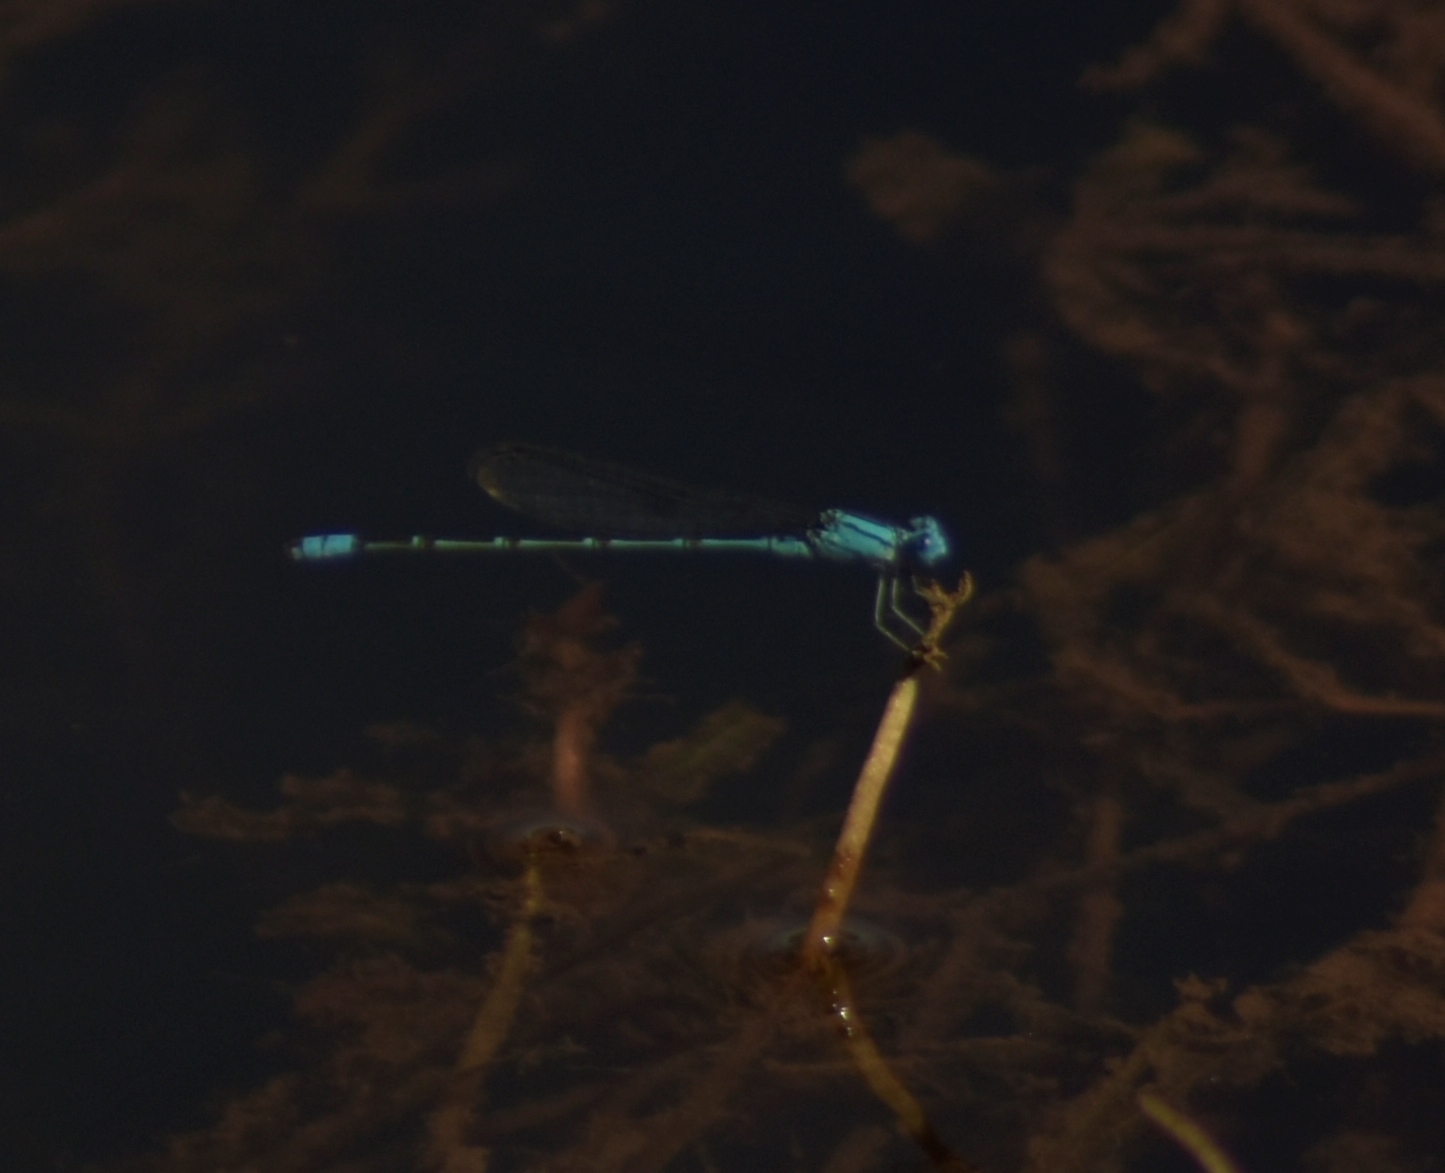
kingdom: Animalia
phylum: Arthropoda
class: Insecta
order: Odonata
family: Coenagrionidae
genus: Pseudagrion
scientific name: Pseudagrion microcephalum
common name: Blue riverdamsel
